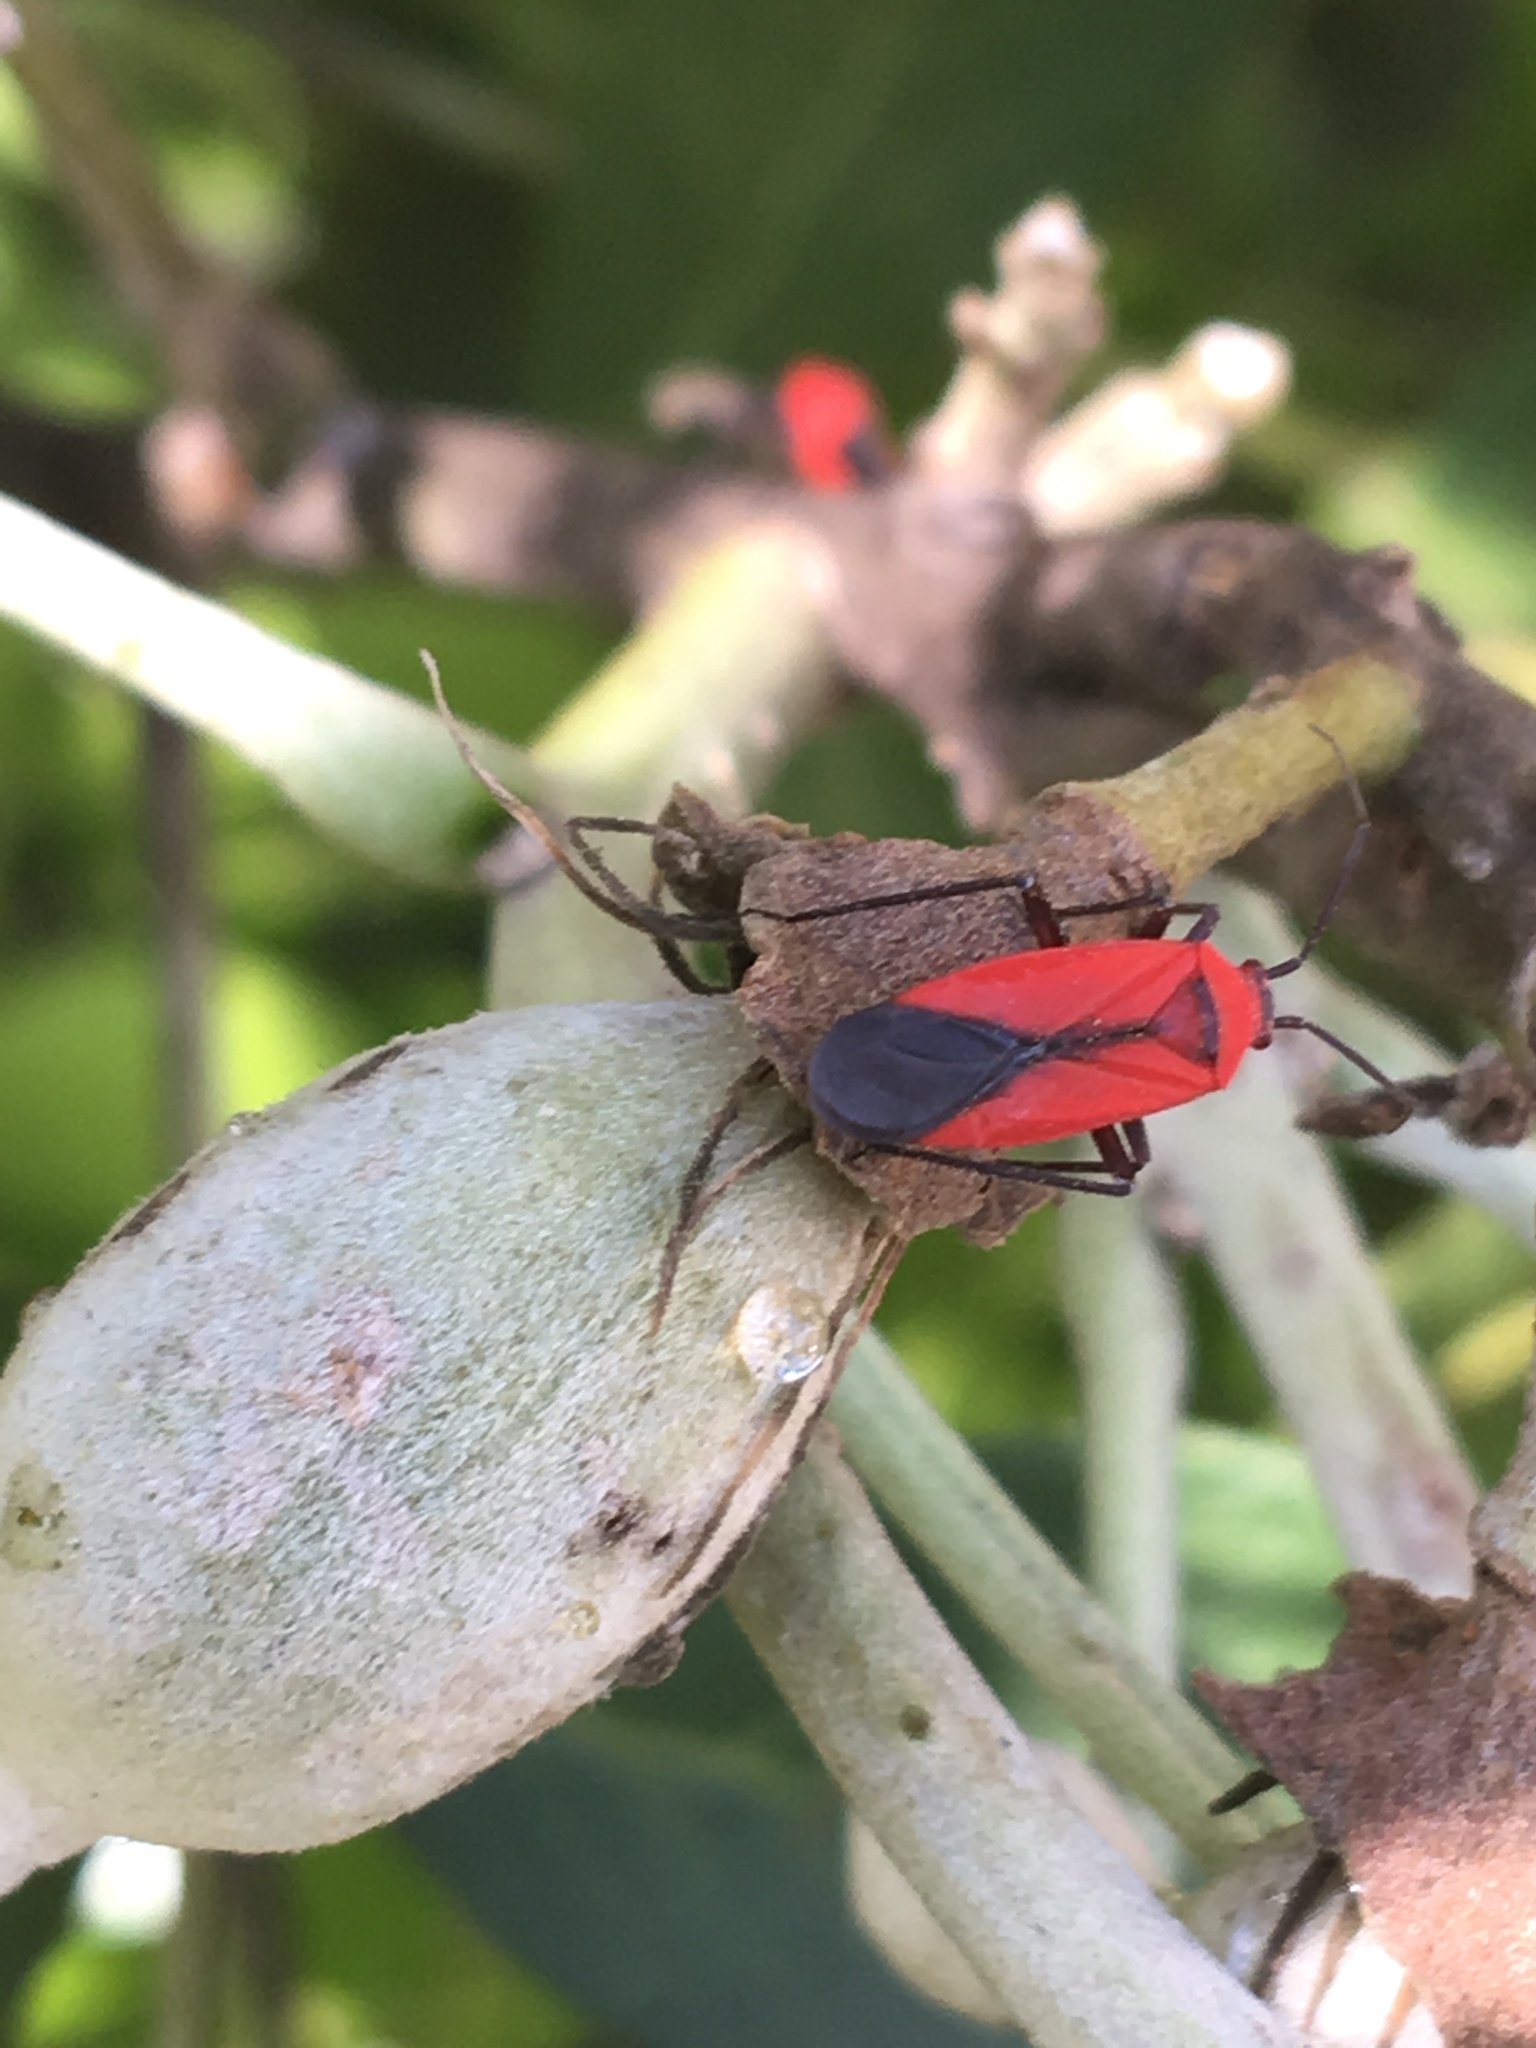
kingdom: Animalia
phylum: Arthropoda
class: Insecta
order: Hemiptera
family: Miridae
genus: Lopidea
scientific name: Lopidea major
